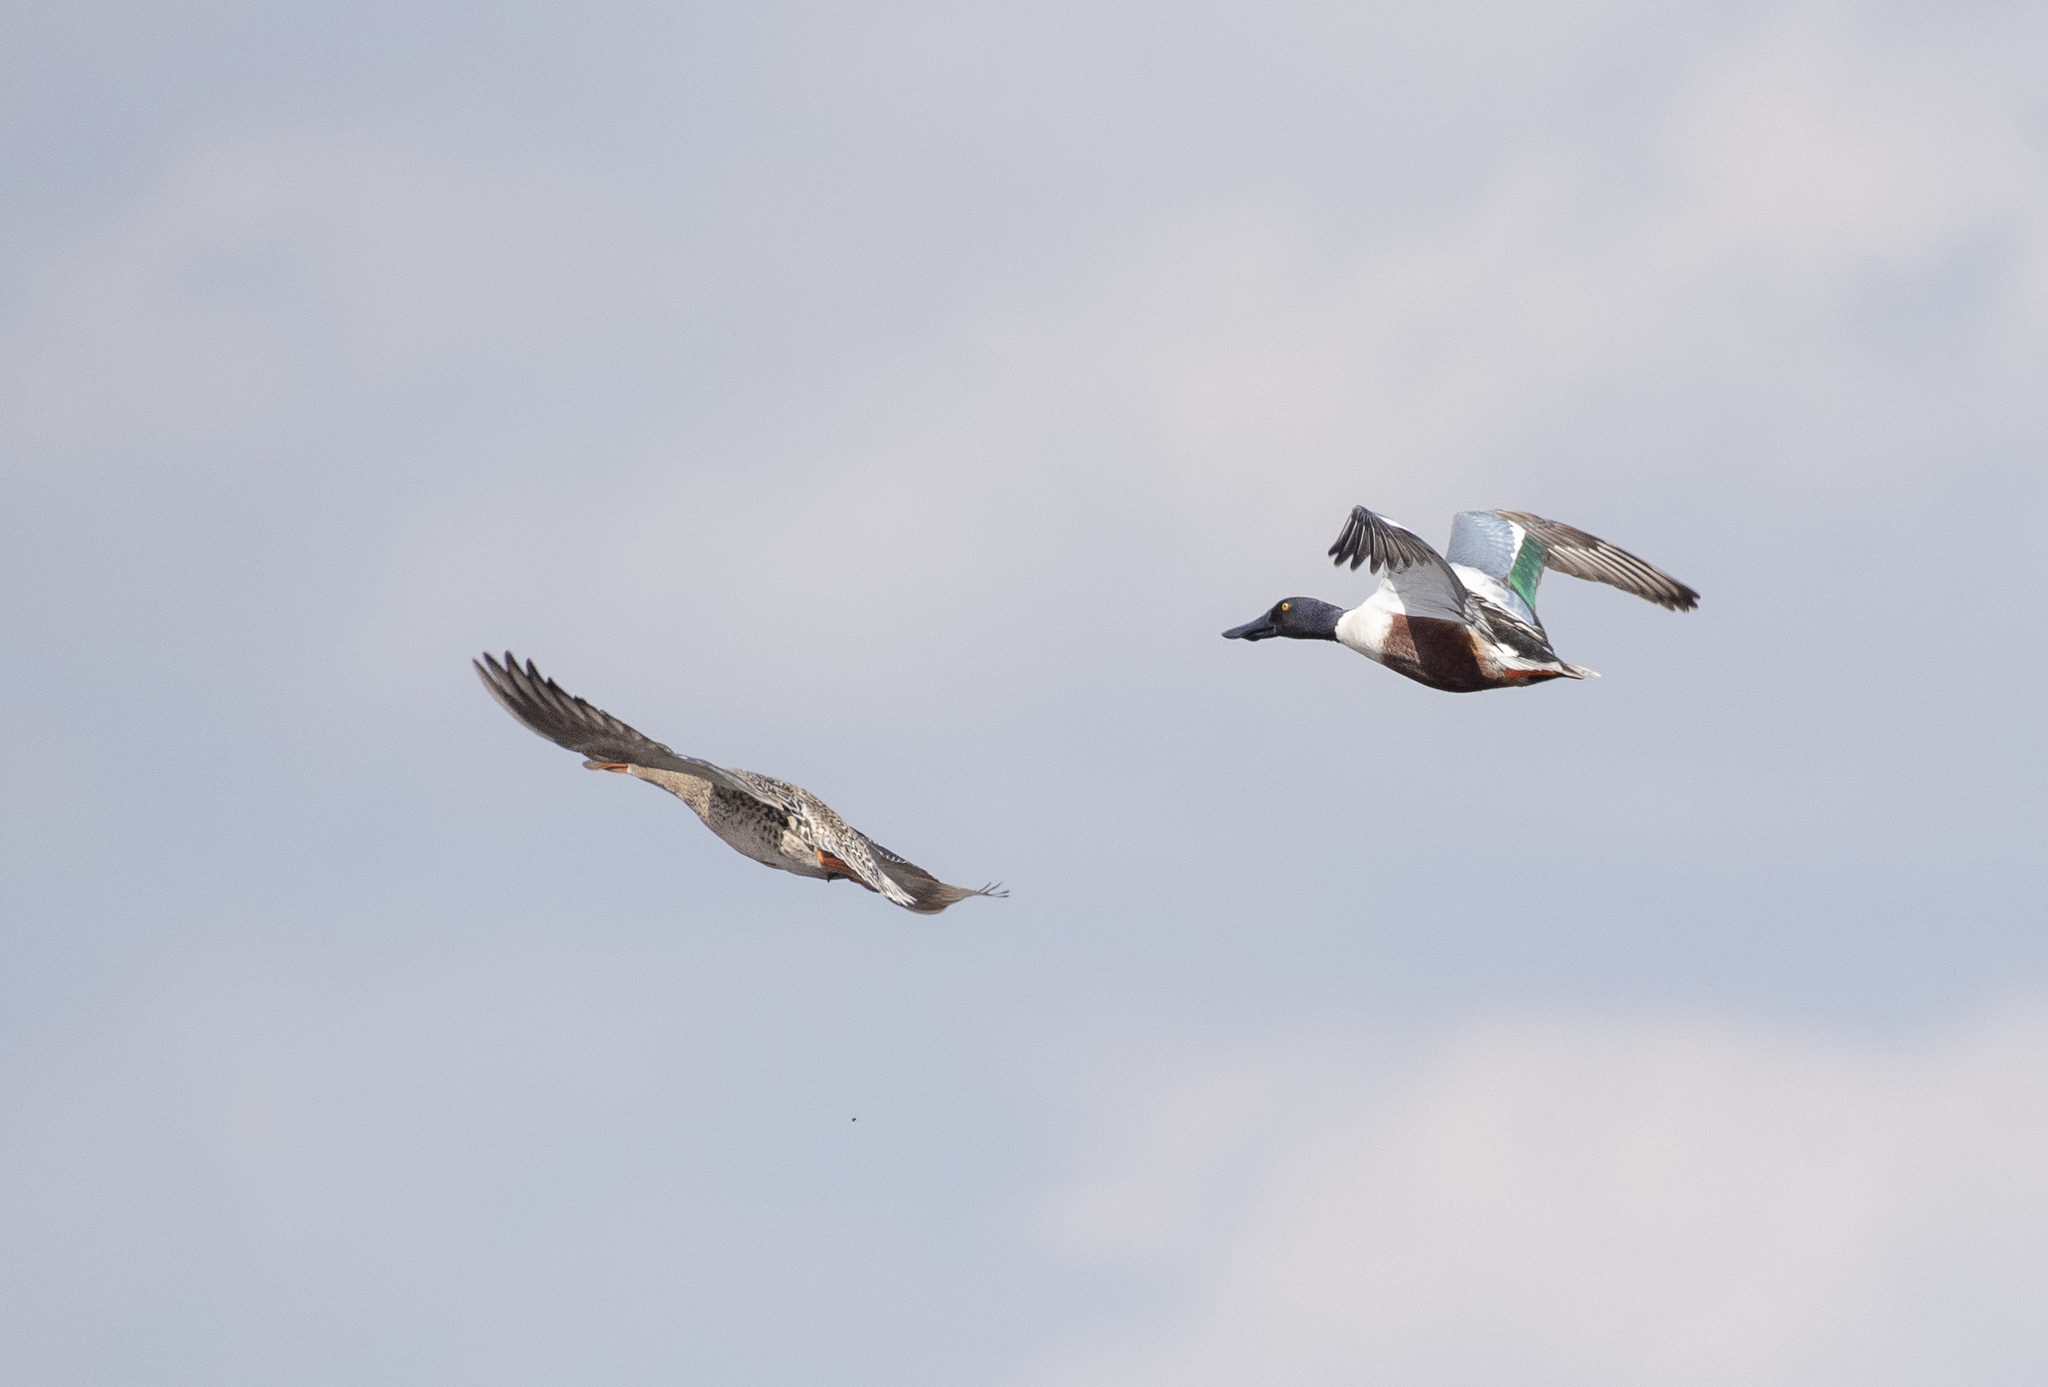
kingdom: Animalia
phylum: Chordata
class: Aves
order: Anseriformes
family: Anatidae
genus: Spatula
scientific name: Spatula clypeata
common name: Northern shoveler
